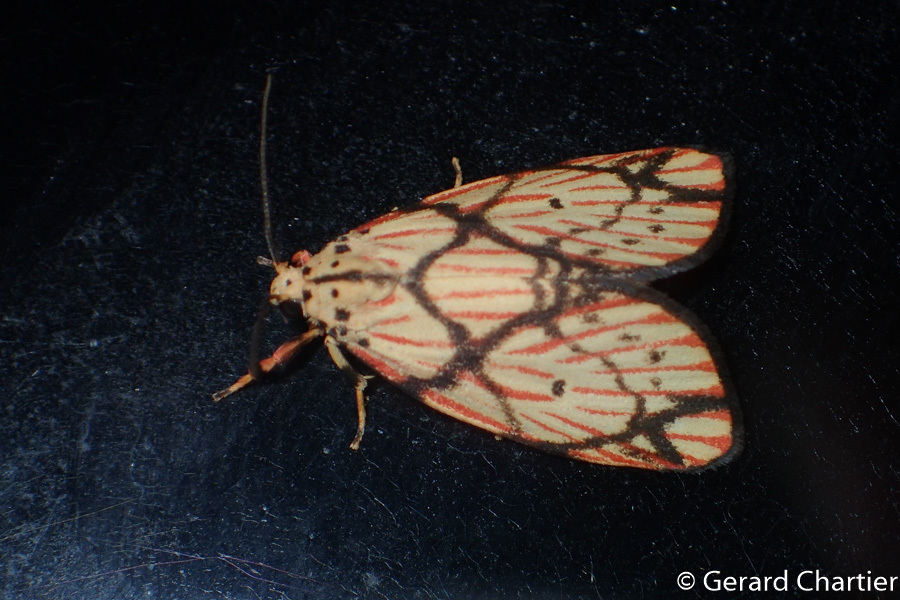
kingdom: Animalia
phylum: Arthropoda
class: Insecta
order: Lepidoptera
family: Erebidae
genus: Barsilene
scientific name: Barsilene pallinflexa
